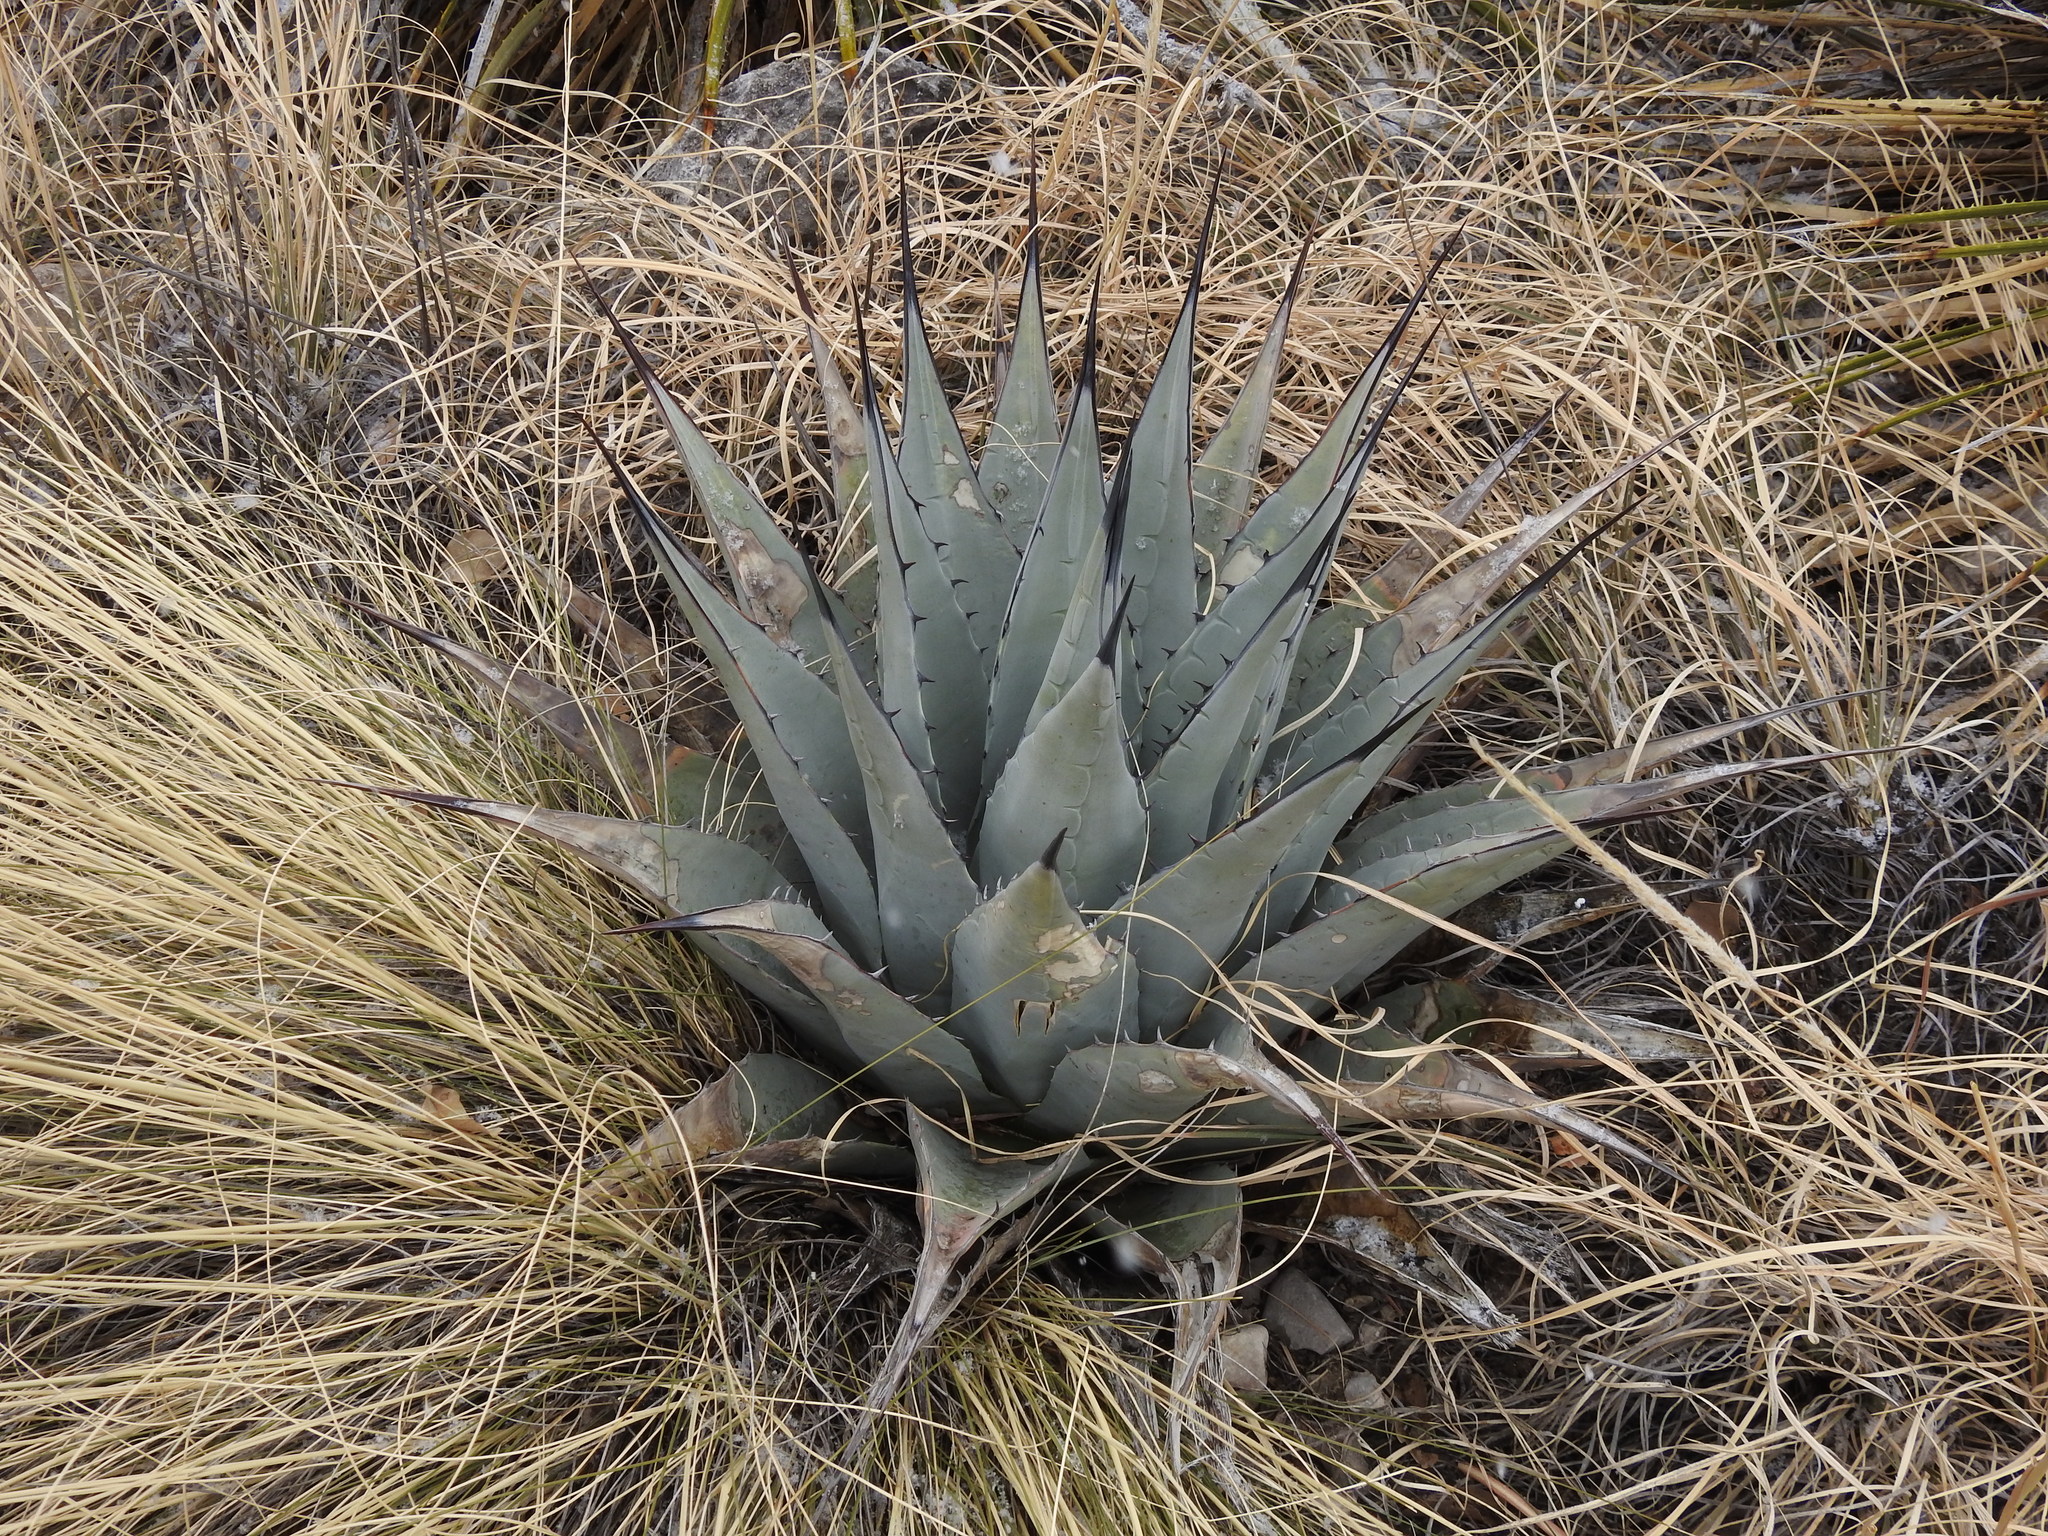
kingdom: Plantae
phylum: Tracheophyta
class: Liliopsida
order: Asparagales
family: Asparagaceae
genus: Agave
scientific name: Agave parryi
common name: Parry's agave
